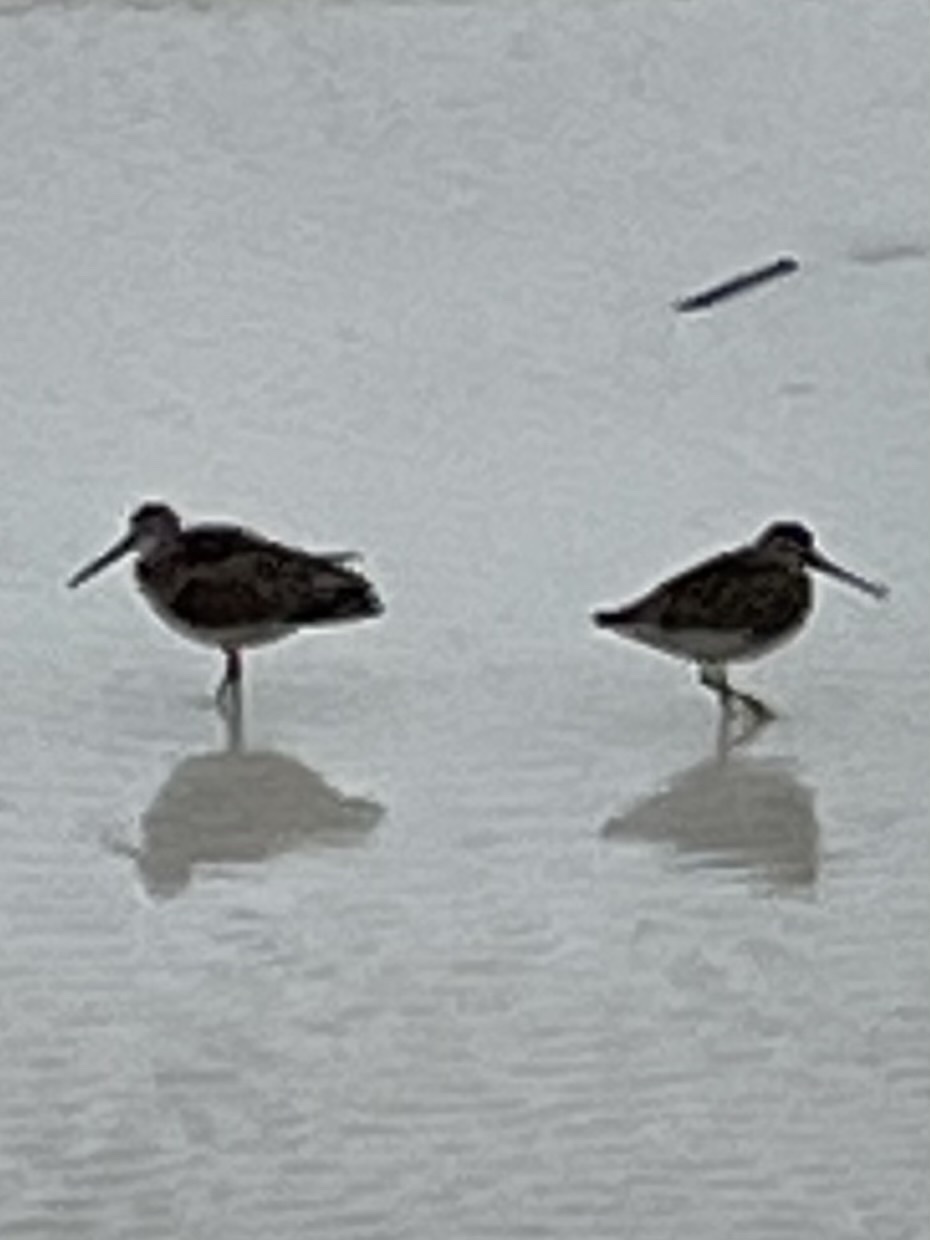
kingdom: Animalia
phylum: Chordata
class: Aves
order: Charadriiformes
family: Scolopacidae
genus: Limnodromus
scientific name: Limnodromus griseus
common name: Short-billed dowitcher
